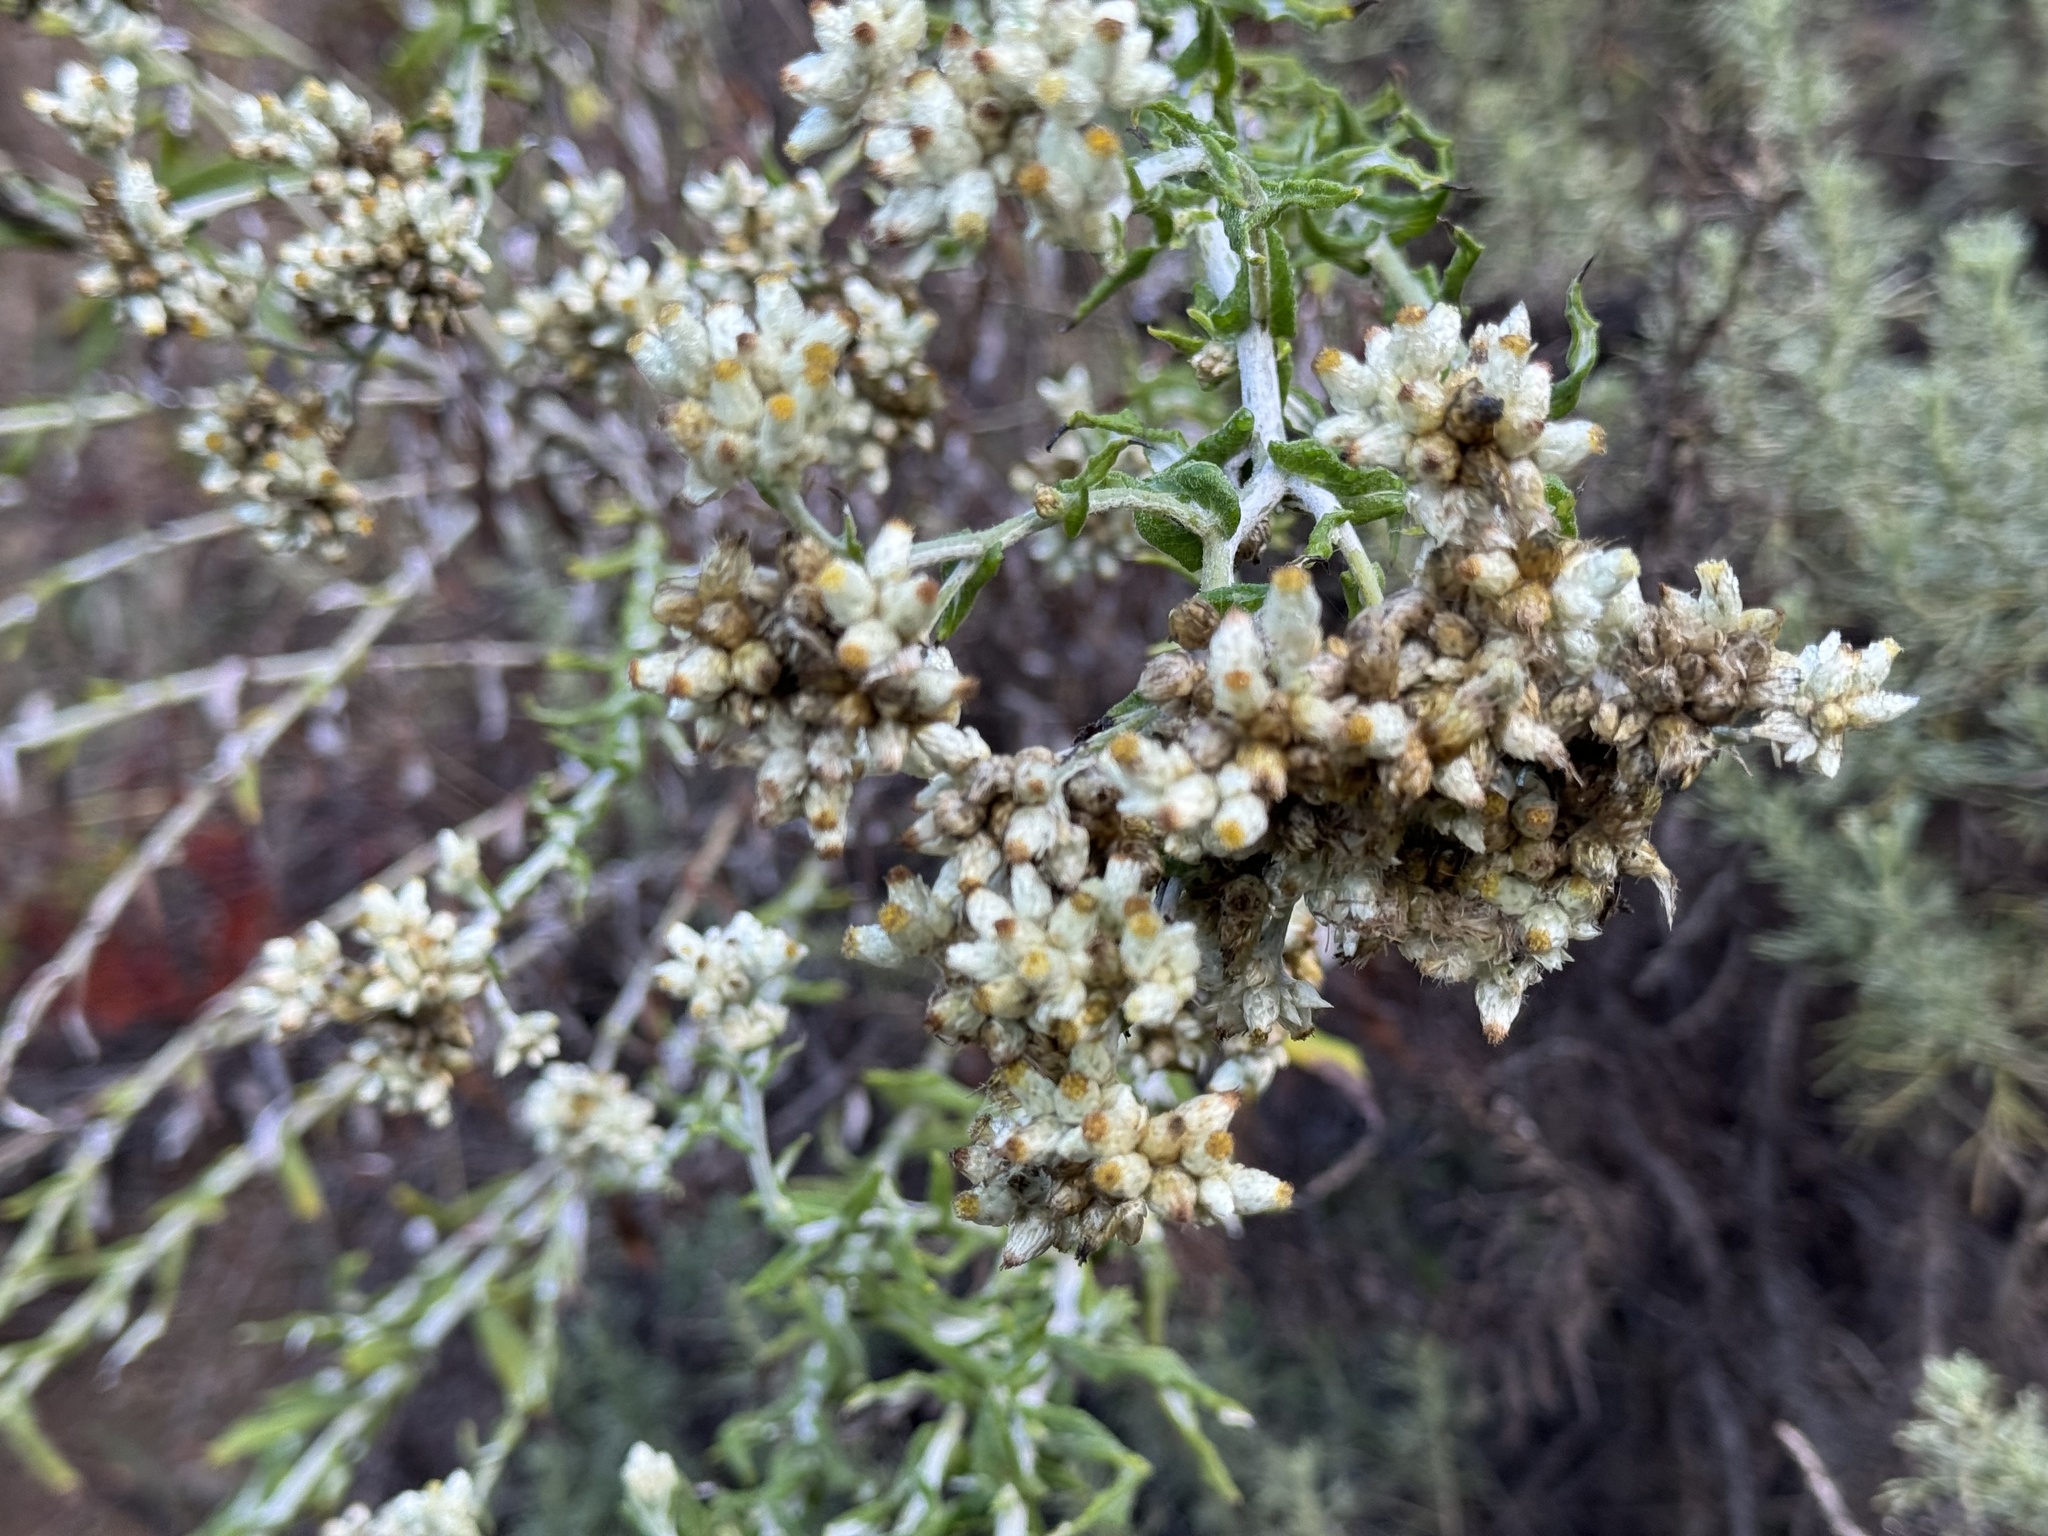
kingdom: Plantae
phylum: Tracheophyta
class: Magnoliopsida
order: Asterales
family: Asteraceae
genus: Pseudognaphalium
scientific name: Pseudognaphalium biolettii
